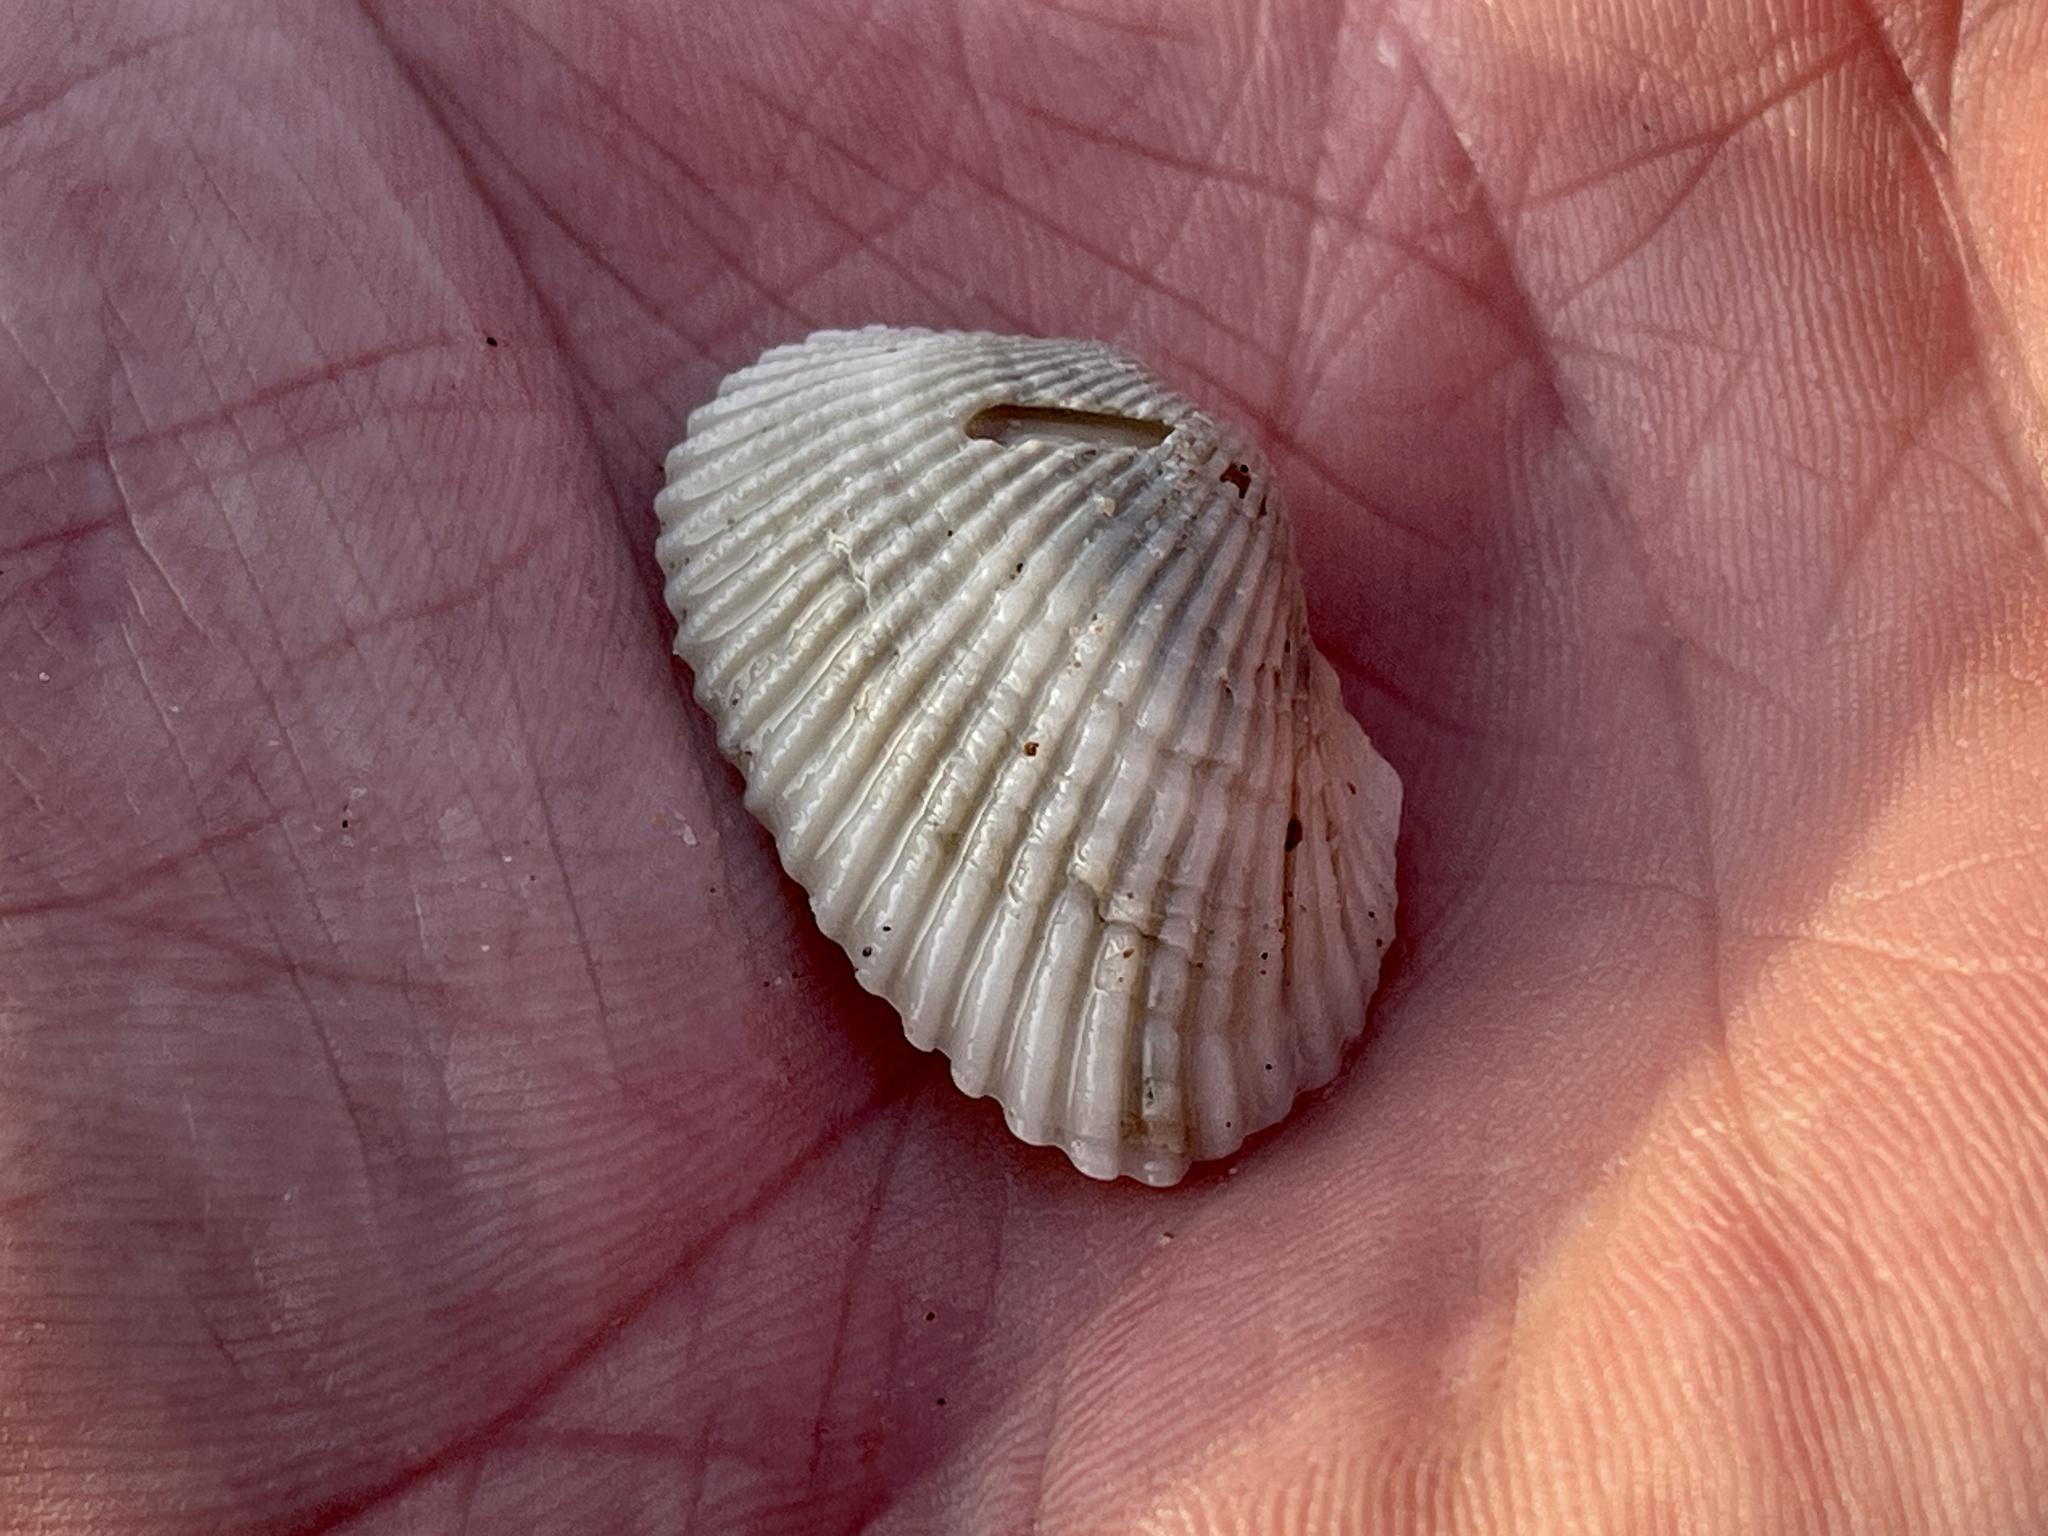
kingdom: Animalia
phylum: Mollusca
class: Bivalvia
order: Arcida
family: Arcidae
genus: Anadara
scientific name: Anadara transversa
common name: Transverse ark
